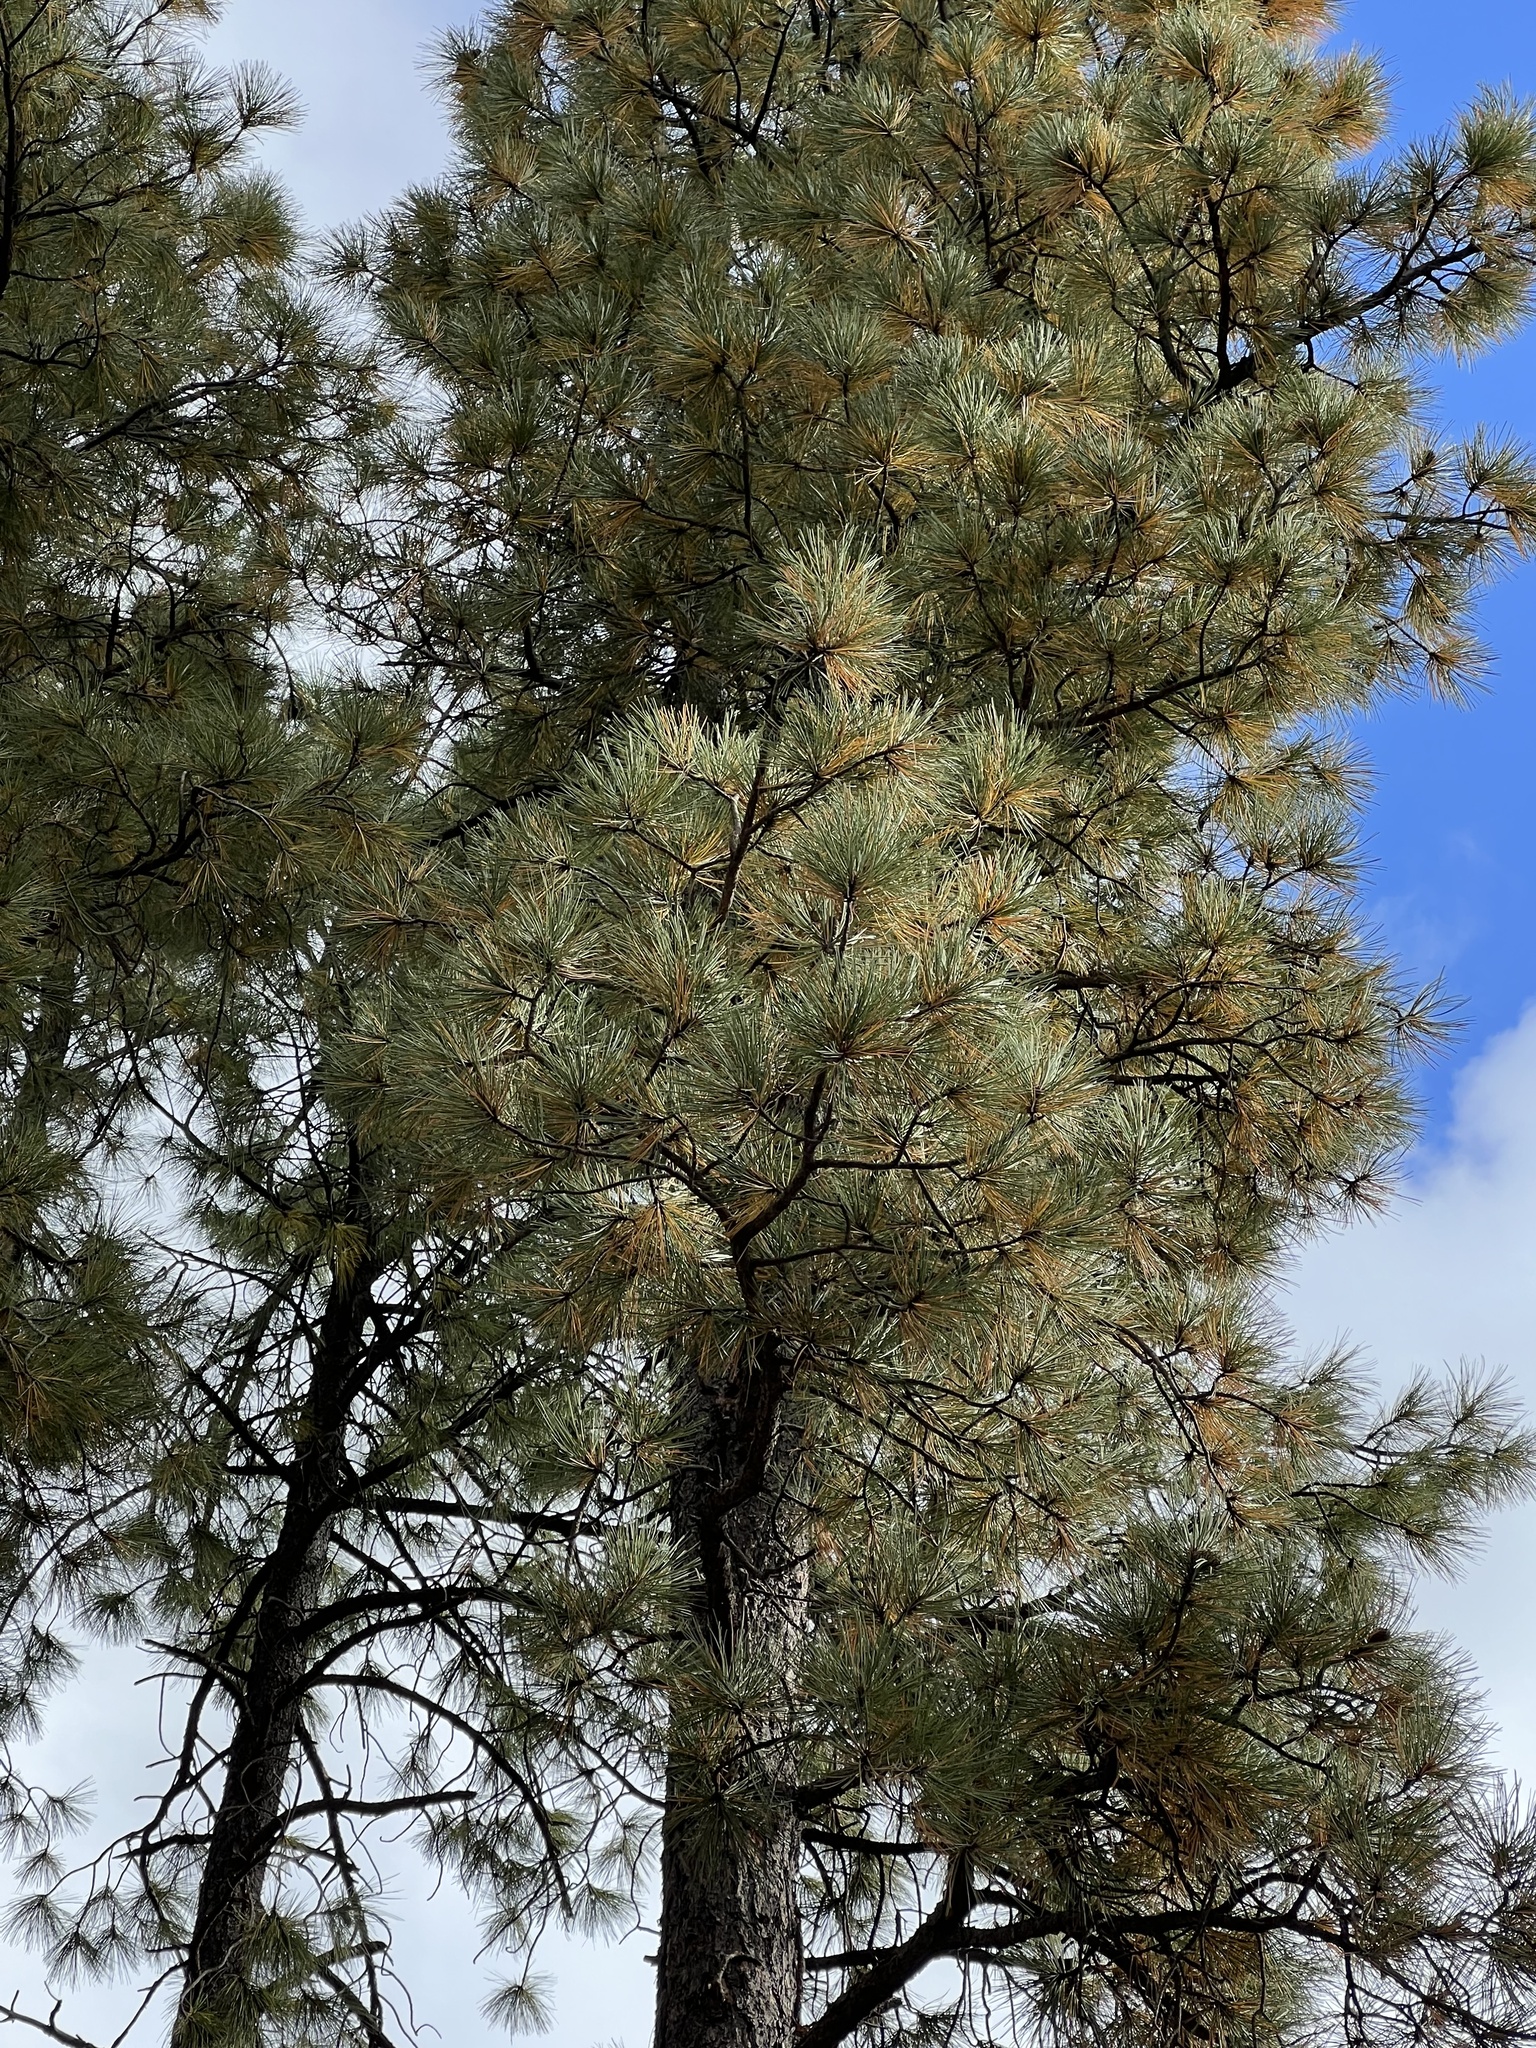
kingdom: Plantae
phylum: Tracheophyta
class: Pinopsida
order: Pinales
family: Pinaceae
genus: Pinus
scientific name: Pinus ponderosa
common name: Western yellow-pine
